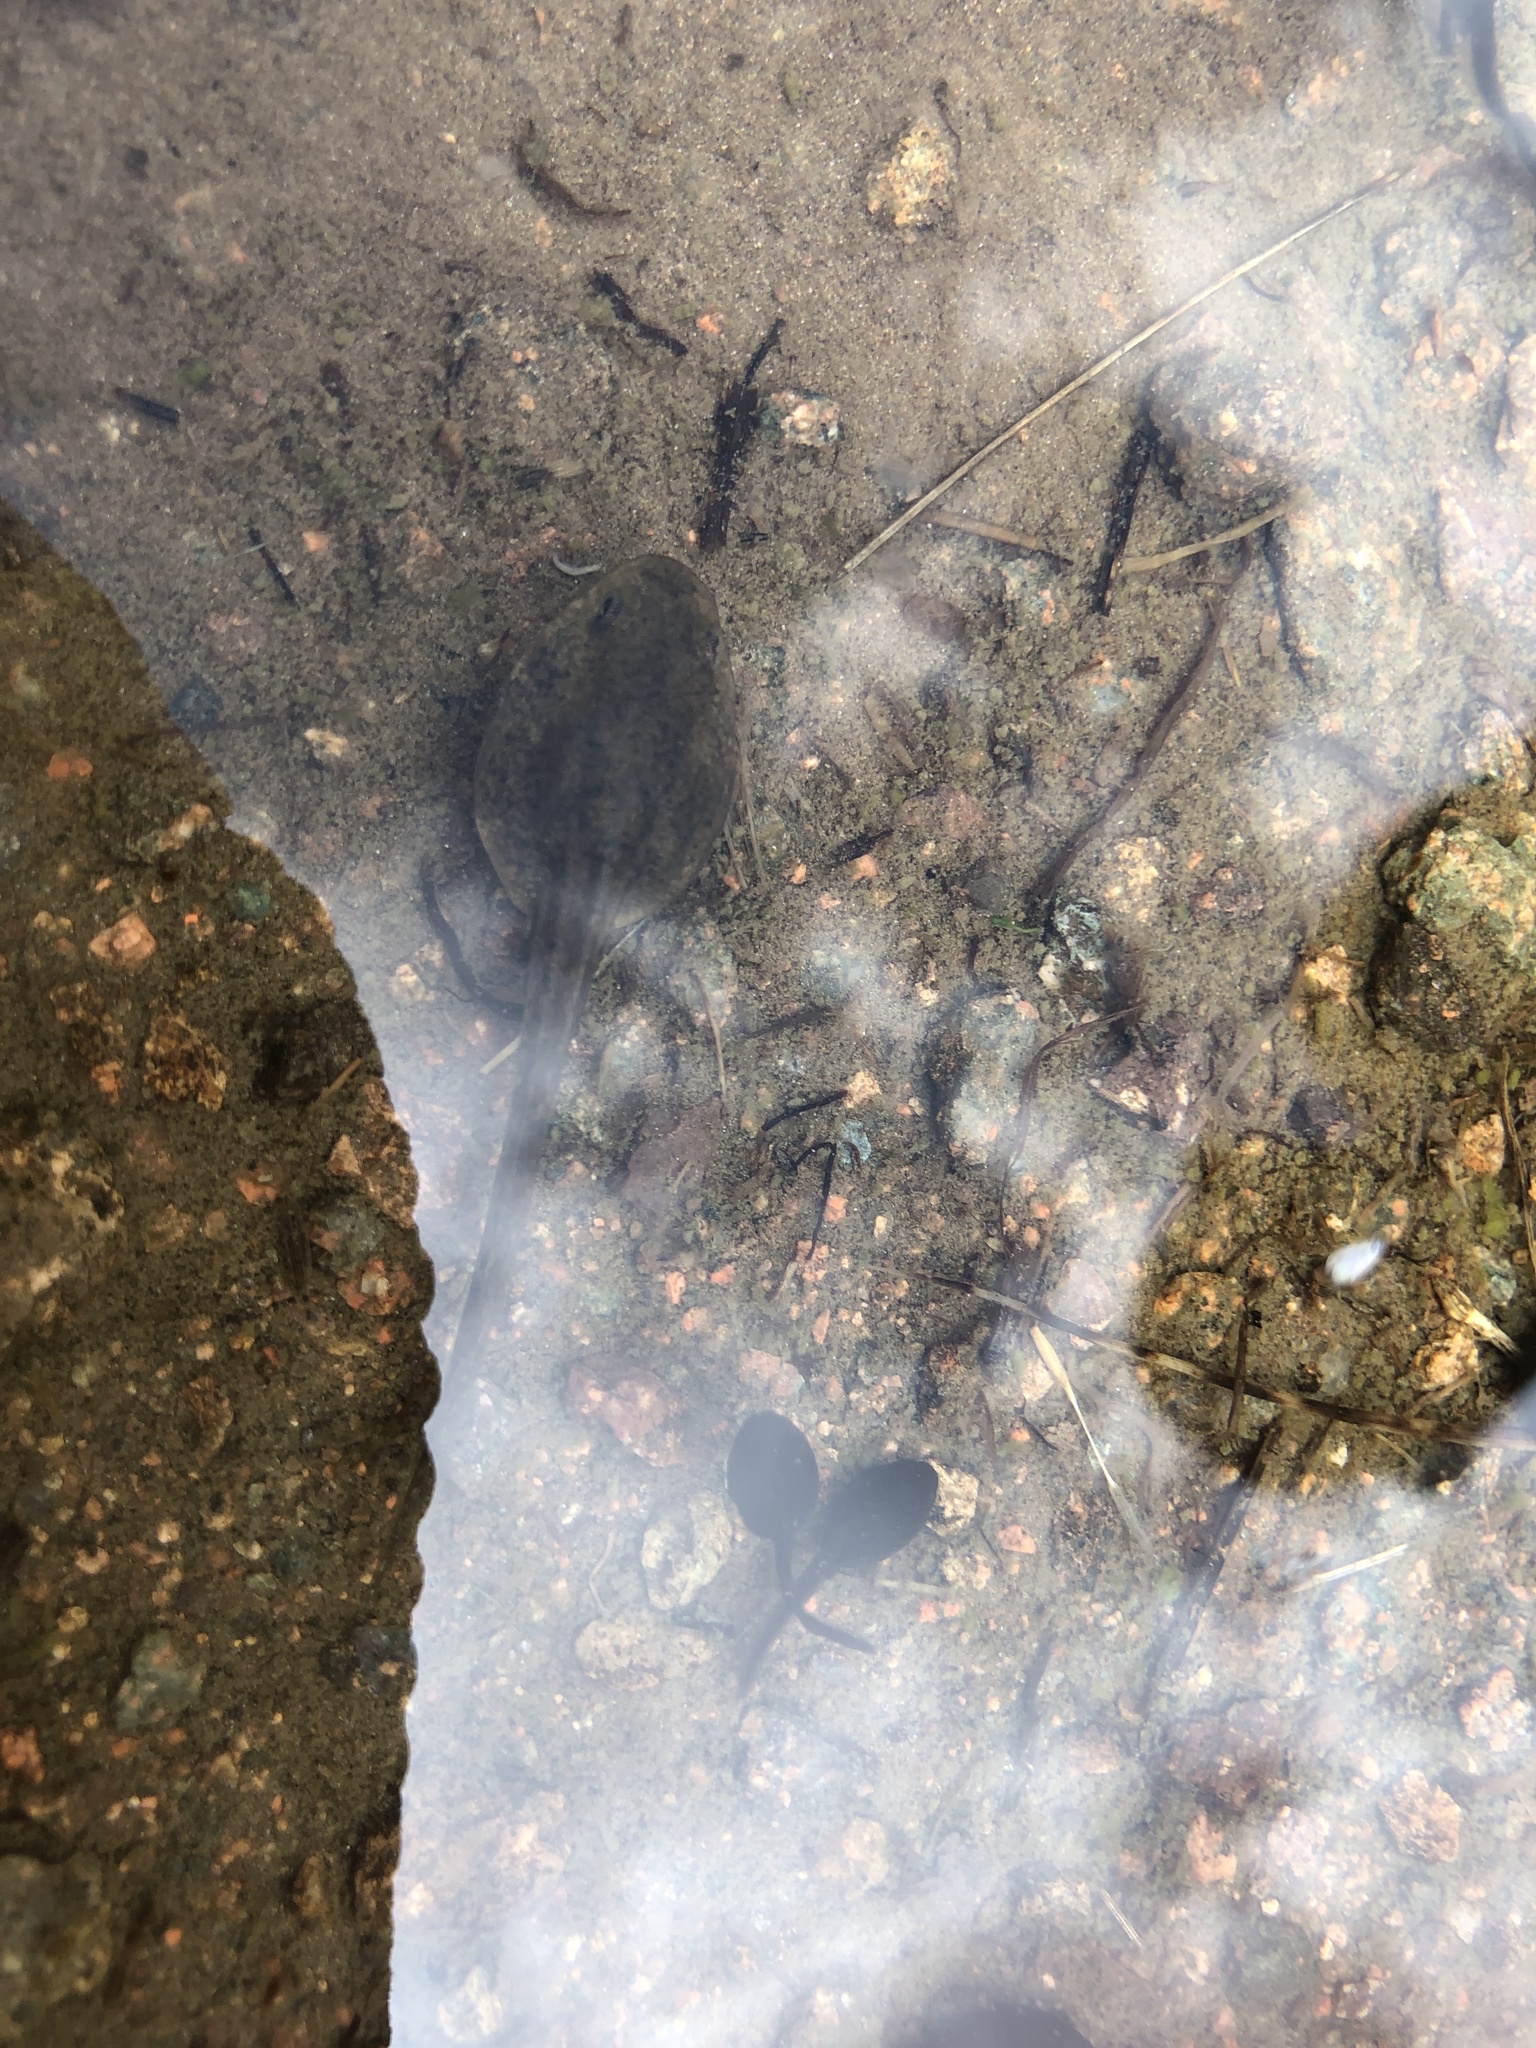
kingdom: Animalia
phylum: Chordata
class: Amphibia
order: Anura
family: Ranidae
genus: Rana
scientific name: Rana temporaria
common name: Common frog
